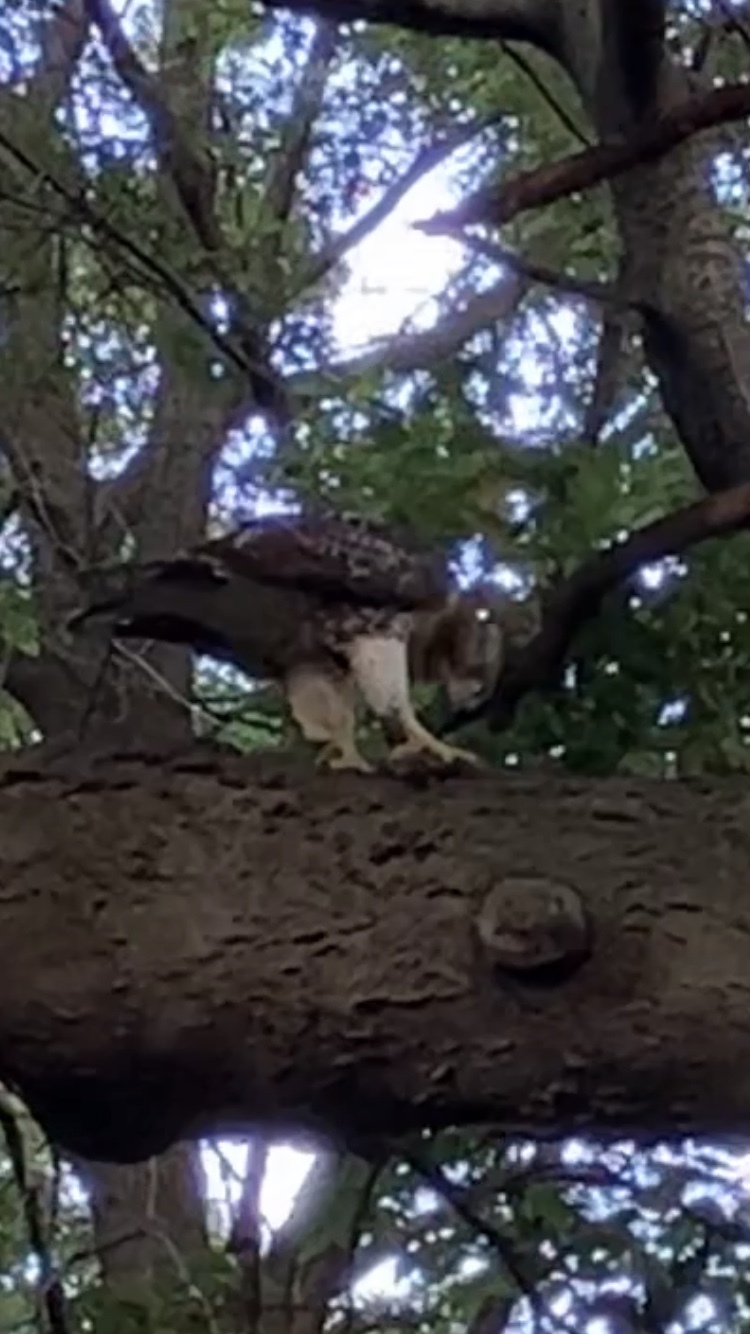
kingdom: Animalia
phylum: Chordata
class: Aves
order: Accipitriformes
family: Accipitridae
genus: Buteo
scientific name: Buteo jamaicensis
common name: Red-tailed hawk
